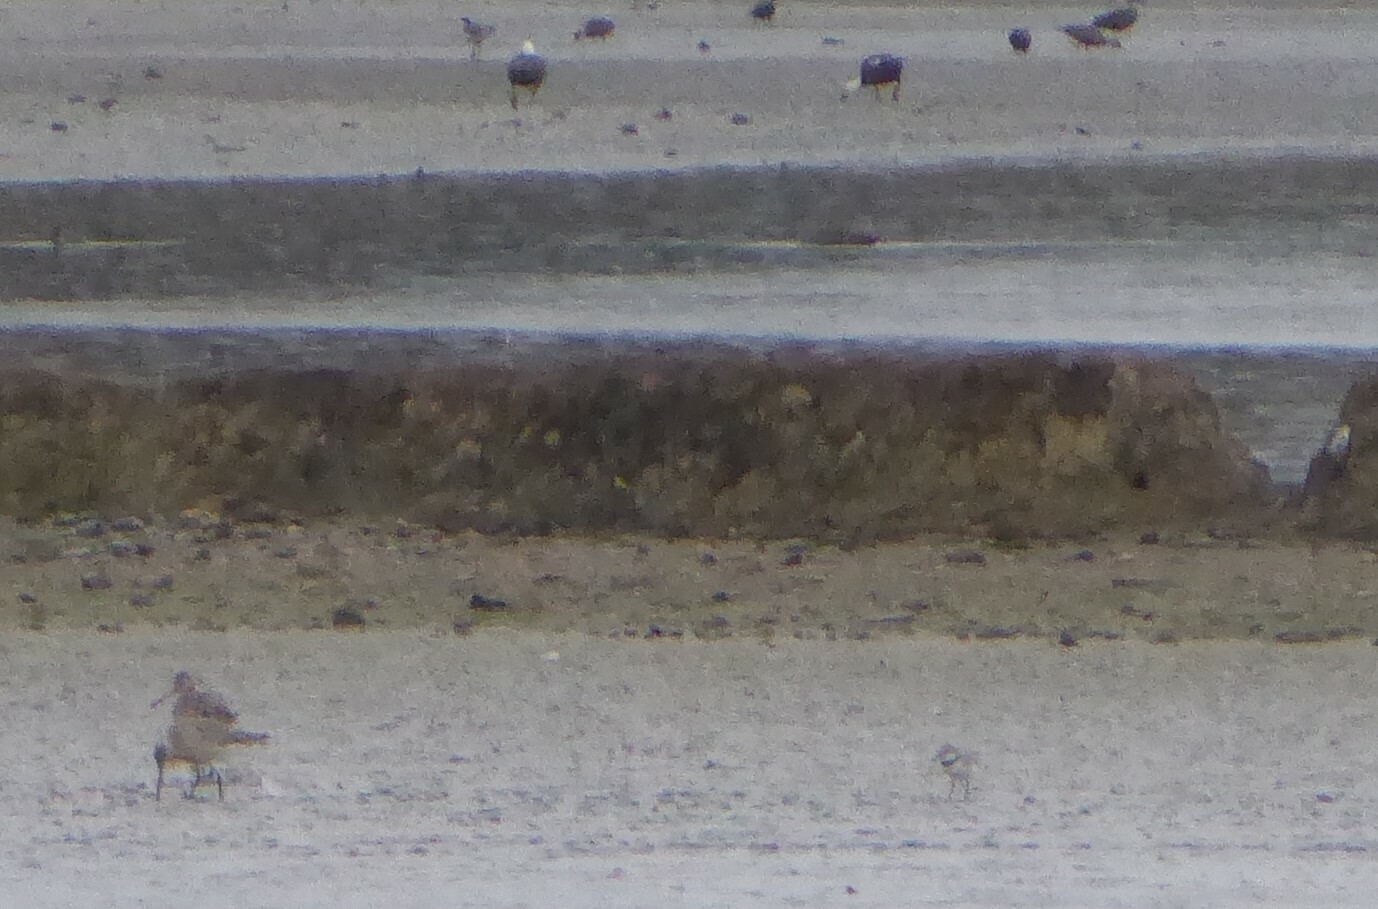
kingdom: Animalia
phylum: Chordata
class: Aves
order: Charadriiformes
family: Charadriidae
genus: Anarhynchus
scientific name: Anarhynchus frontalis
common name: Wrybill
